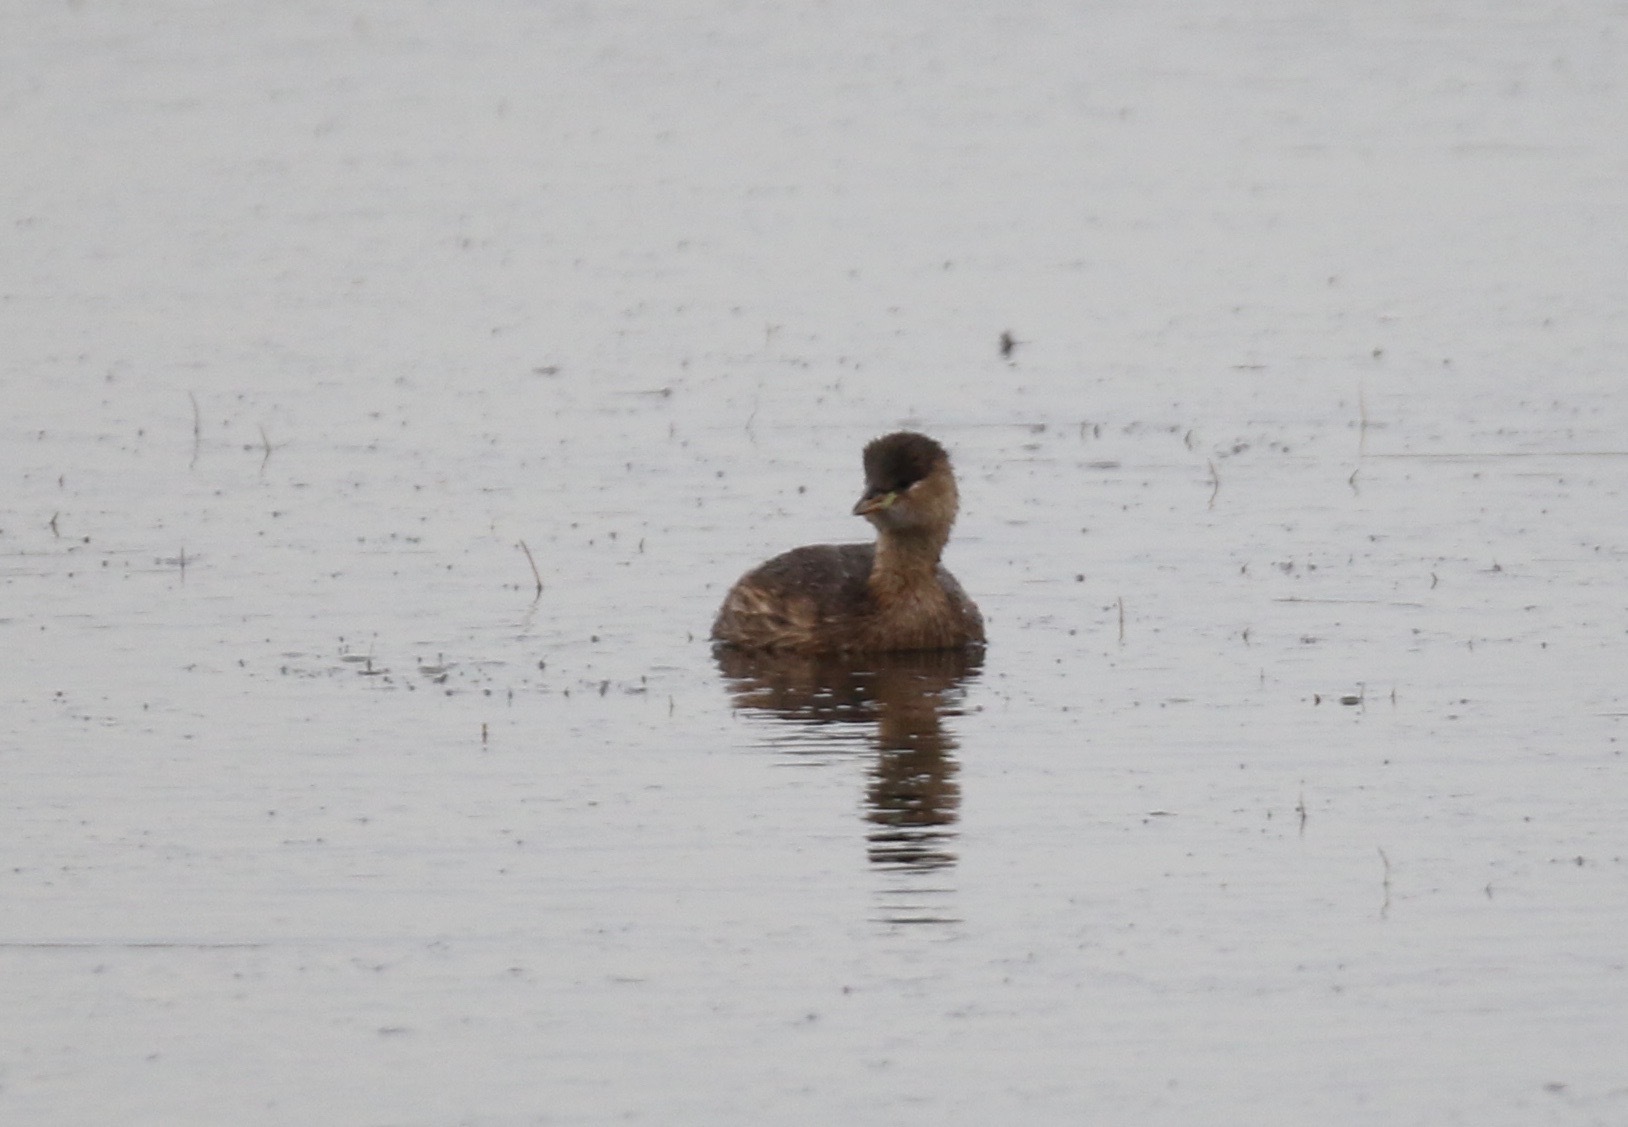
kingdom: Animalia
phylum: Chordata
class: Aves
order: Podicipediformes
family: Podicipedidae
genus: Tachybaptus
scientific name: Tachybaptus ruficollis
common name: Little grebe
